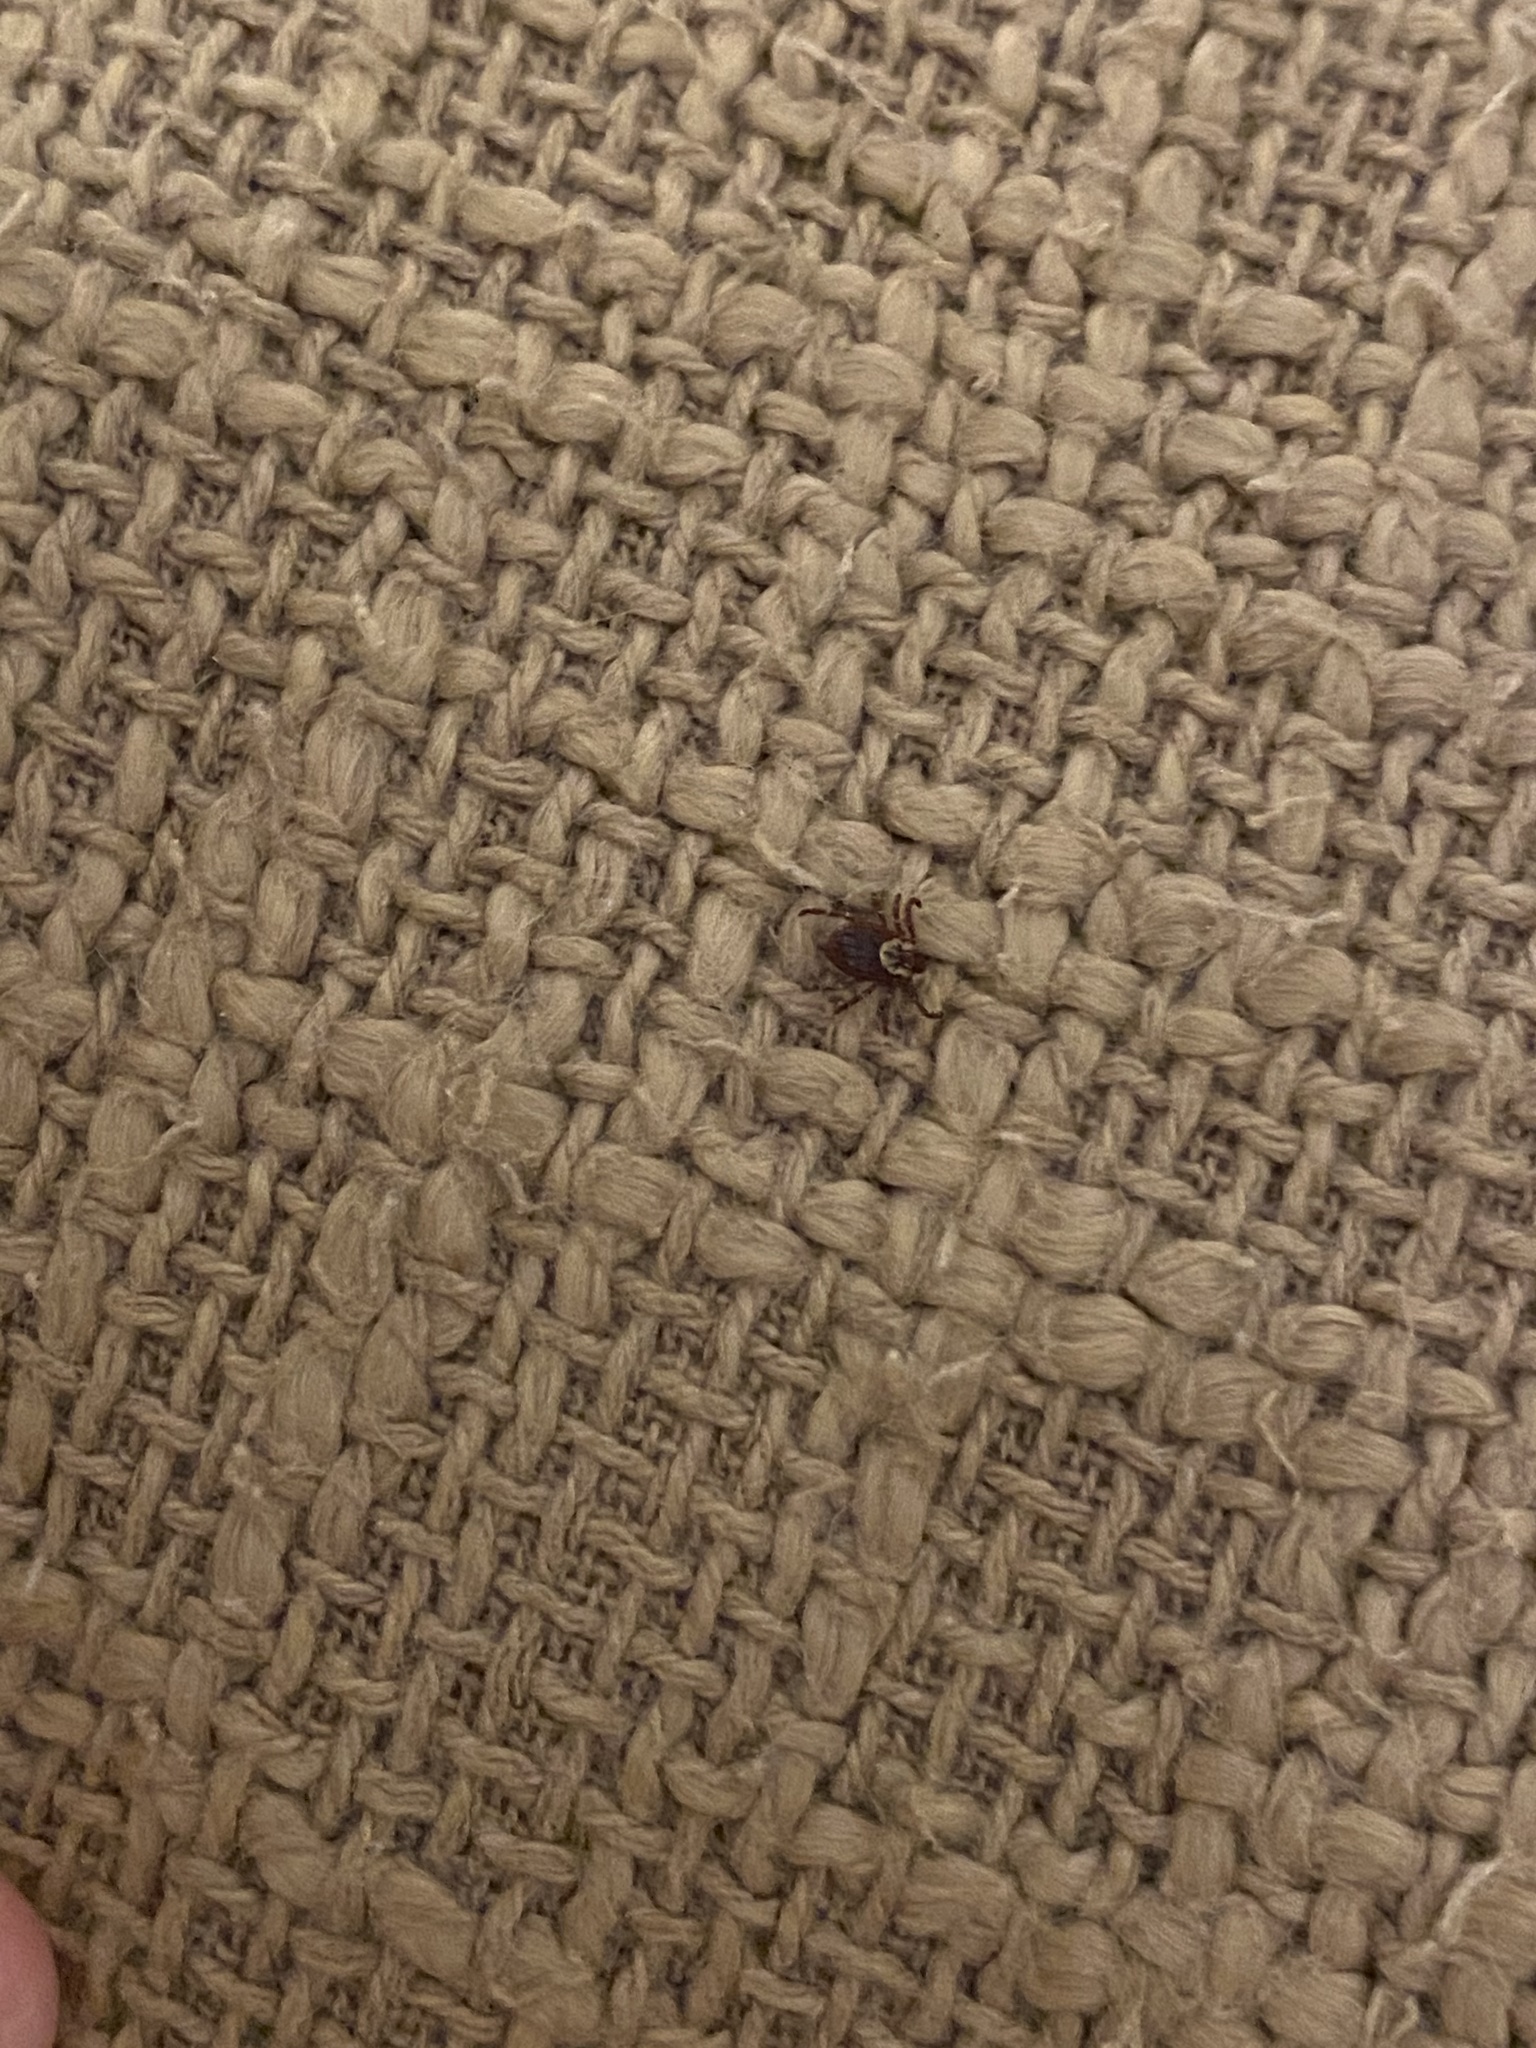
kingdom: Animalia
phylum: Arthropoda
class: Arachnida
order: Ixodida
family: Ixodidae
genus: Dermacentor
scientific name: Dermacentor variabilis
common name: American dog tick
